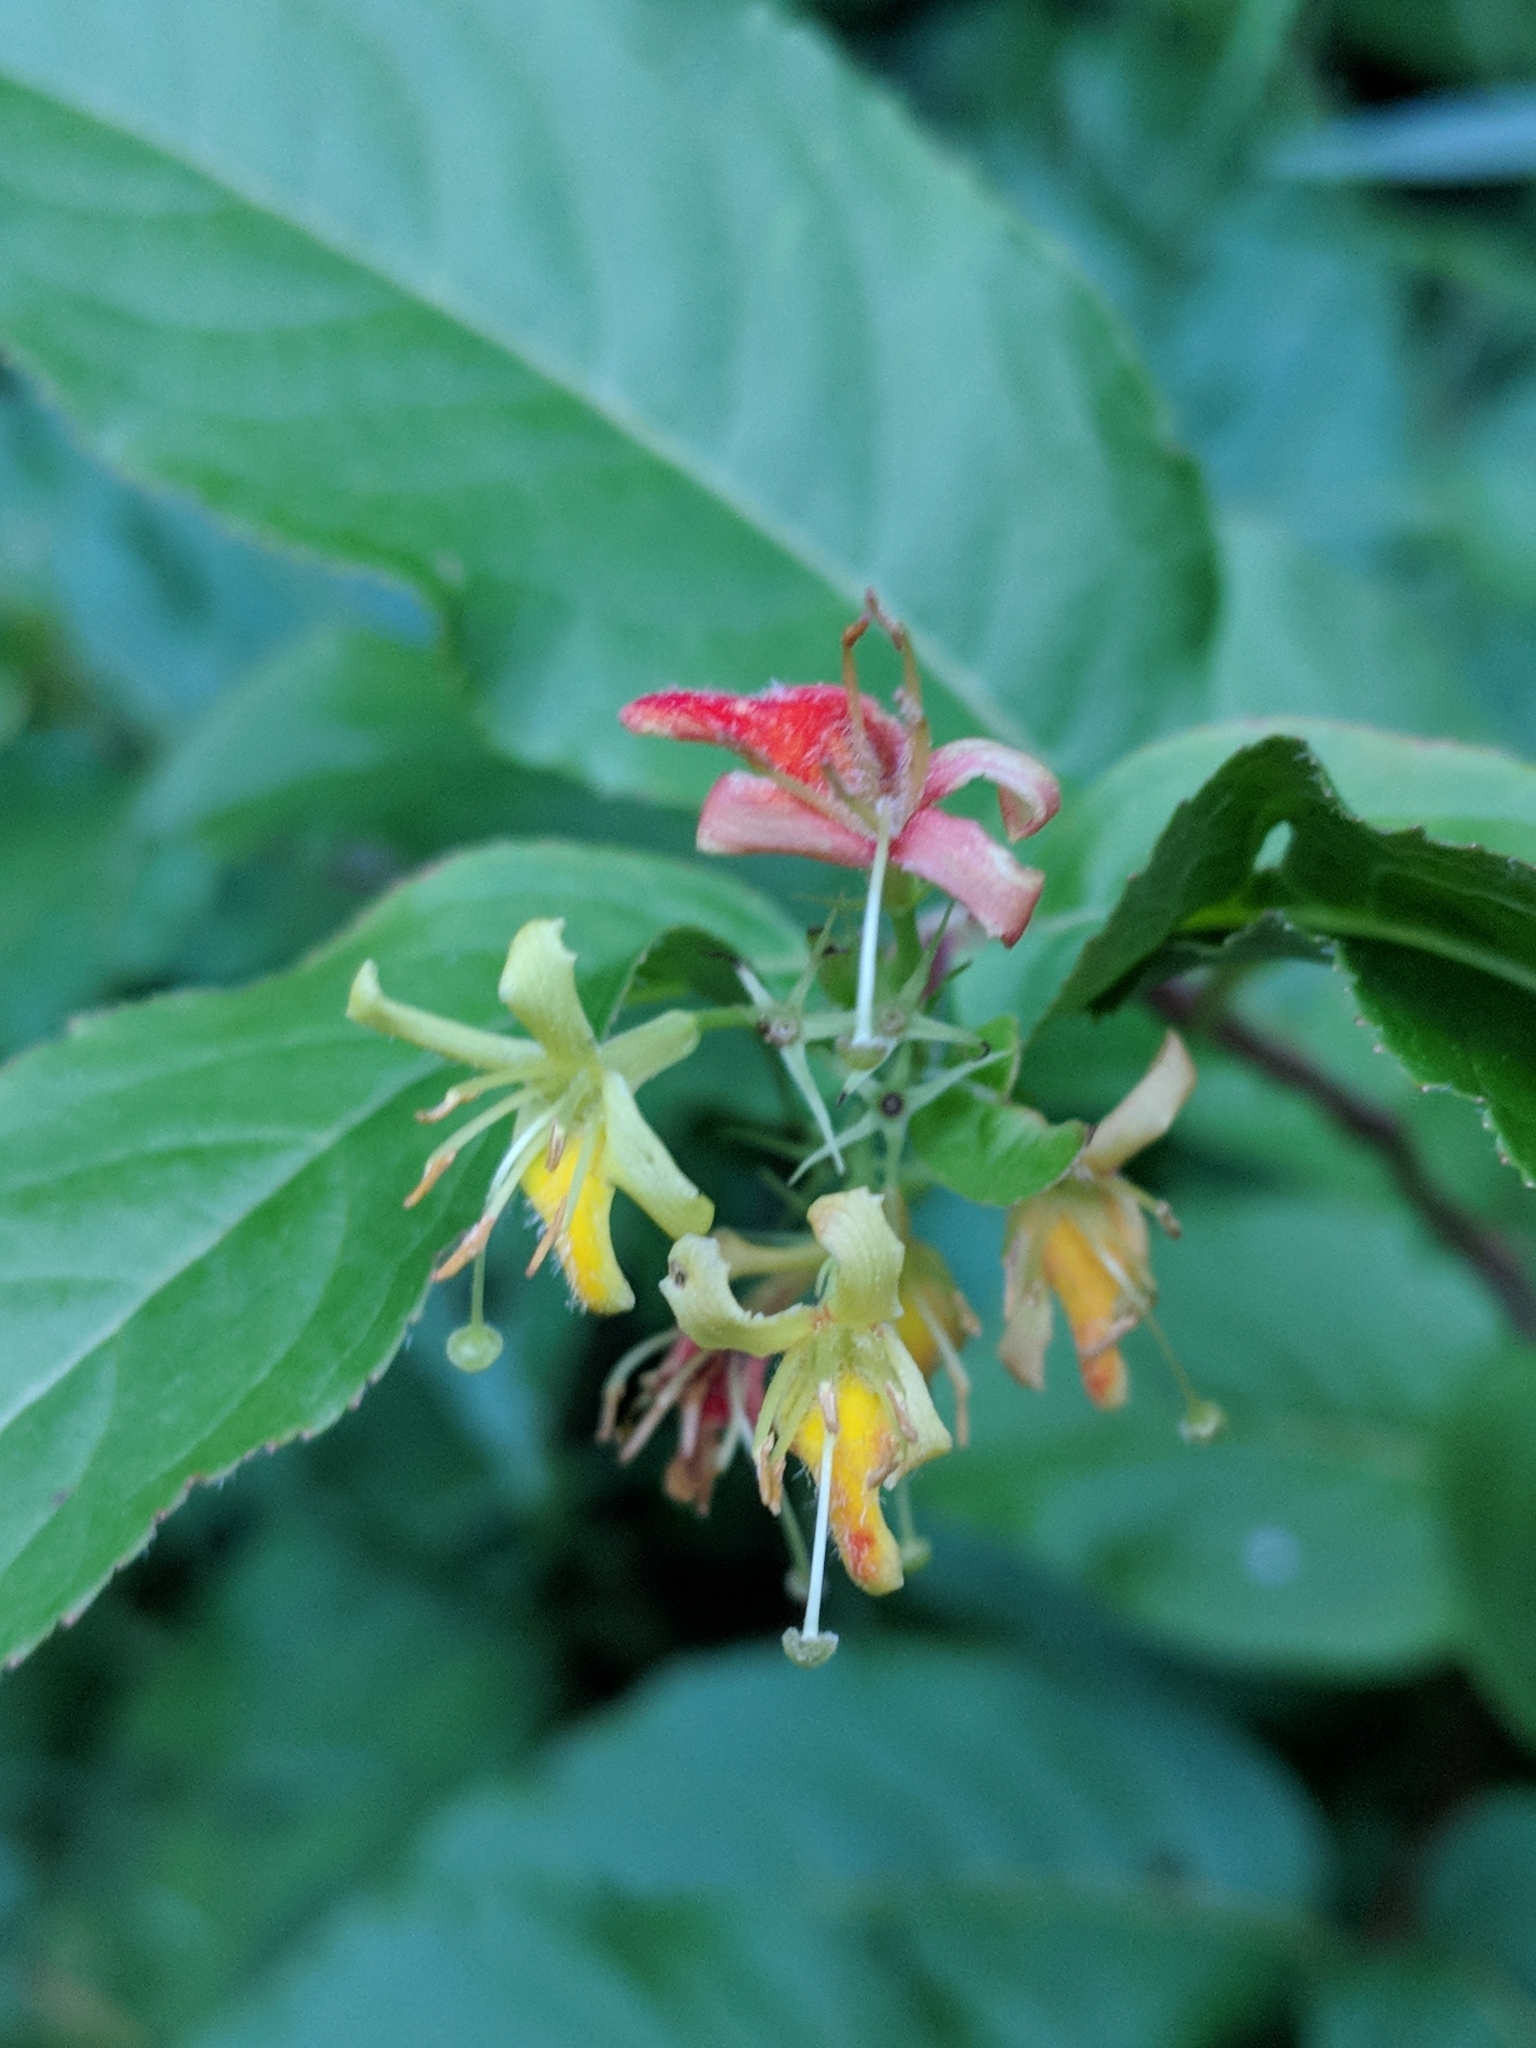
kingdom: Plantae
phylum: Tracheophyta
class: Magnoliopsida
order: Dipsacales
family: Caprifoliaceae
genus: Diervilla
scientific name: Diervilla lonicera
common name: Bush-honeysuckle
